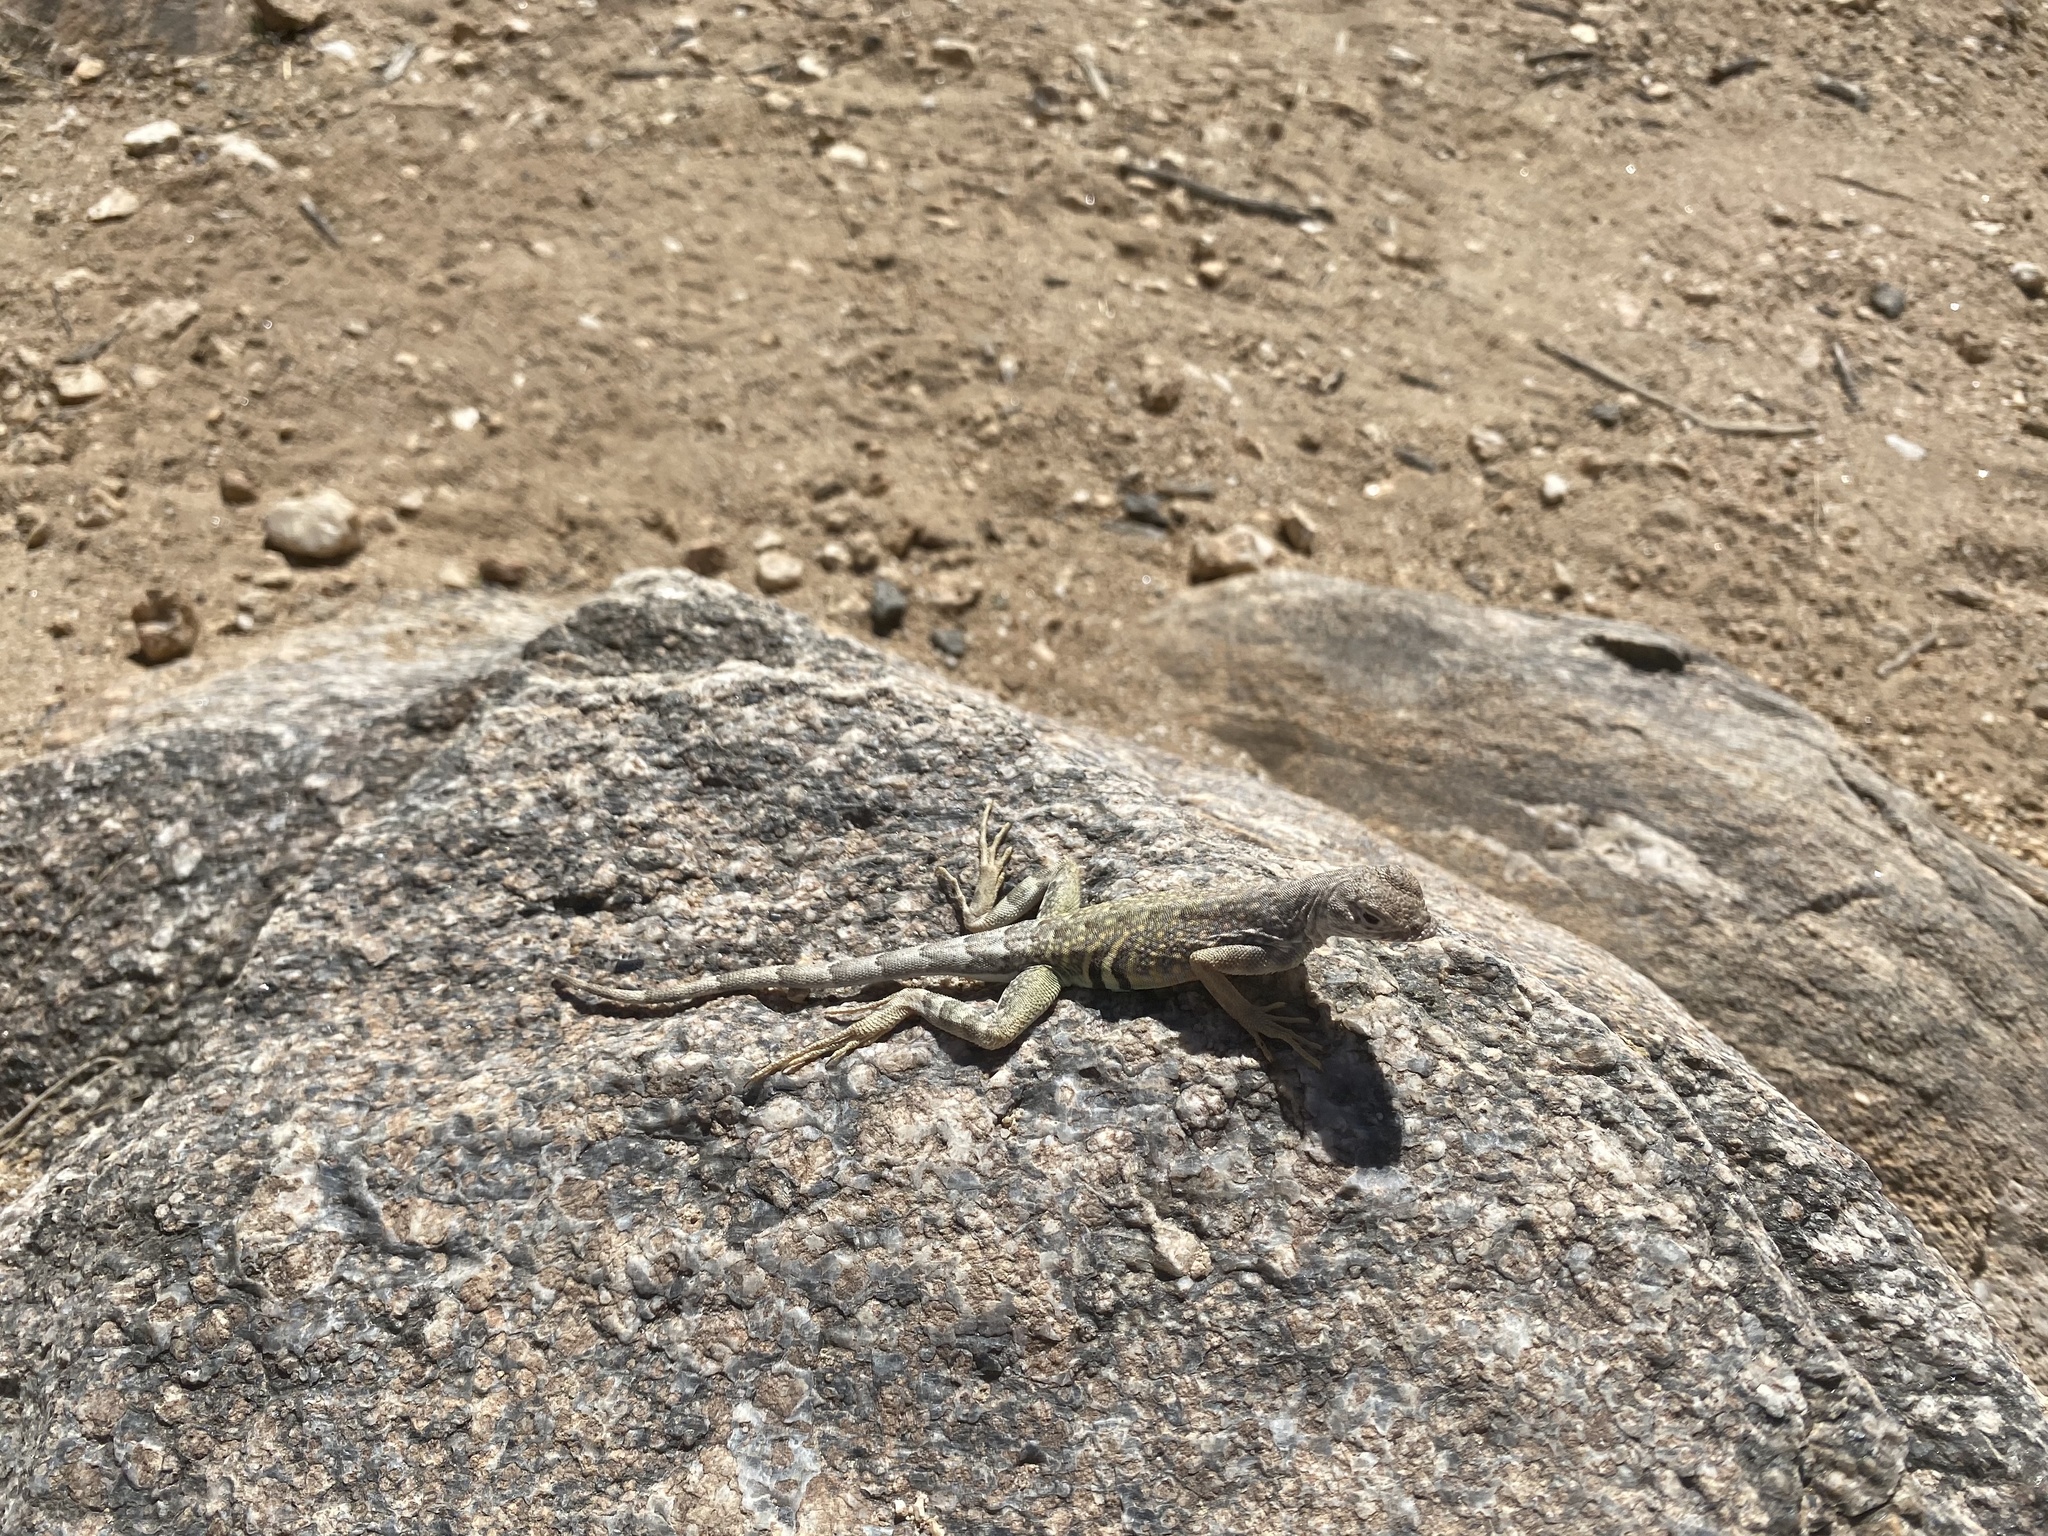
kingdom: Animalia
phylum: Chordata
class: Squamata
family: Phrynosomatidae
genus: Cophosaurus
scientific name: Cophosaurus texanus
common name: Greater earless lizard
